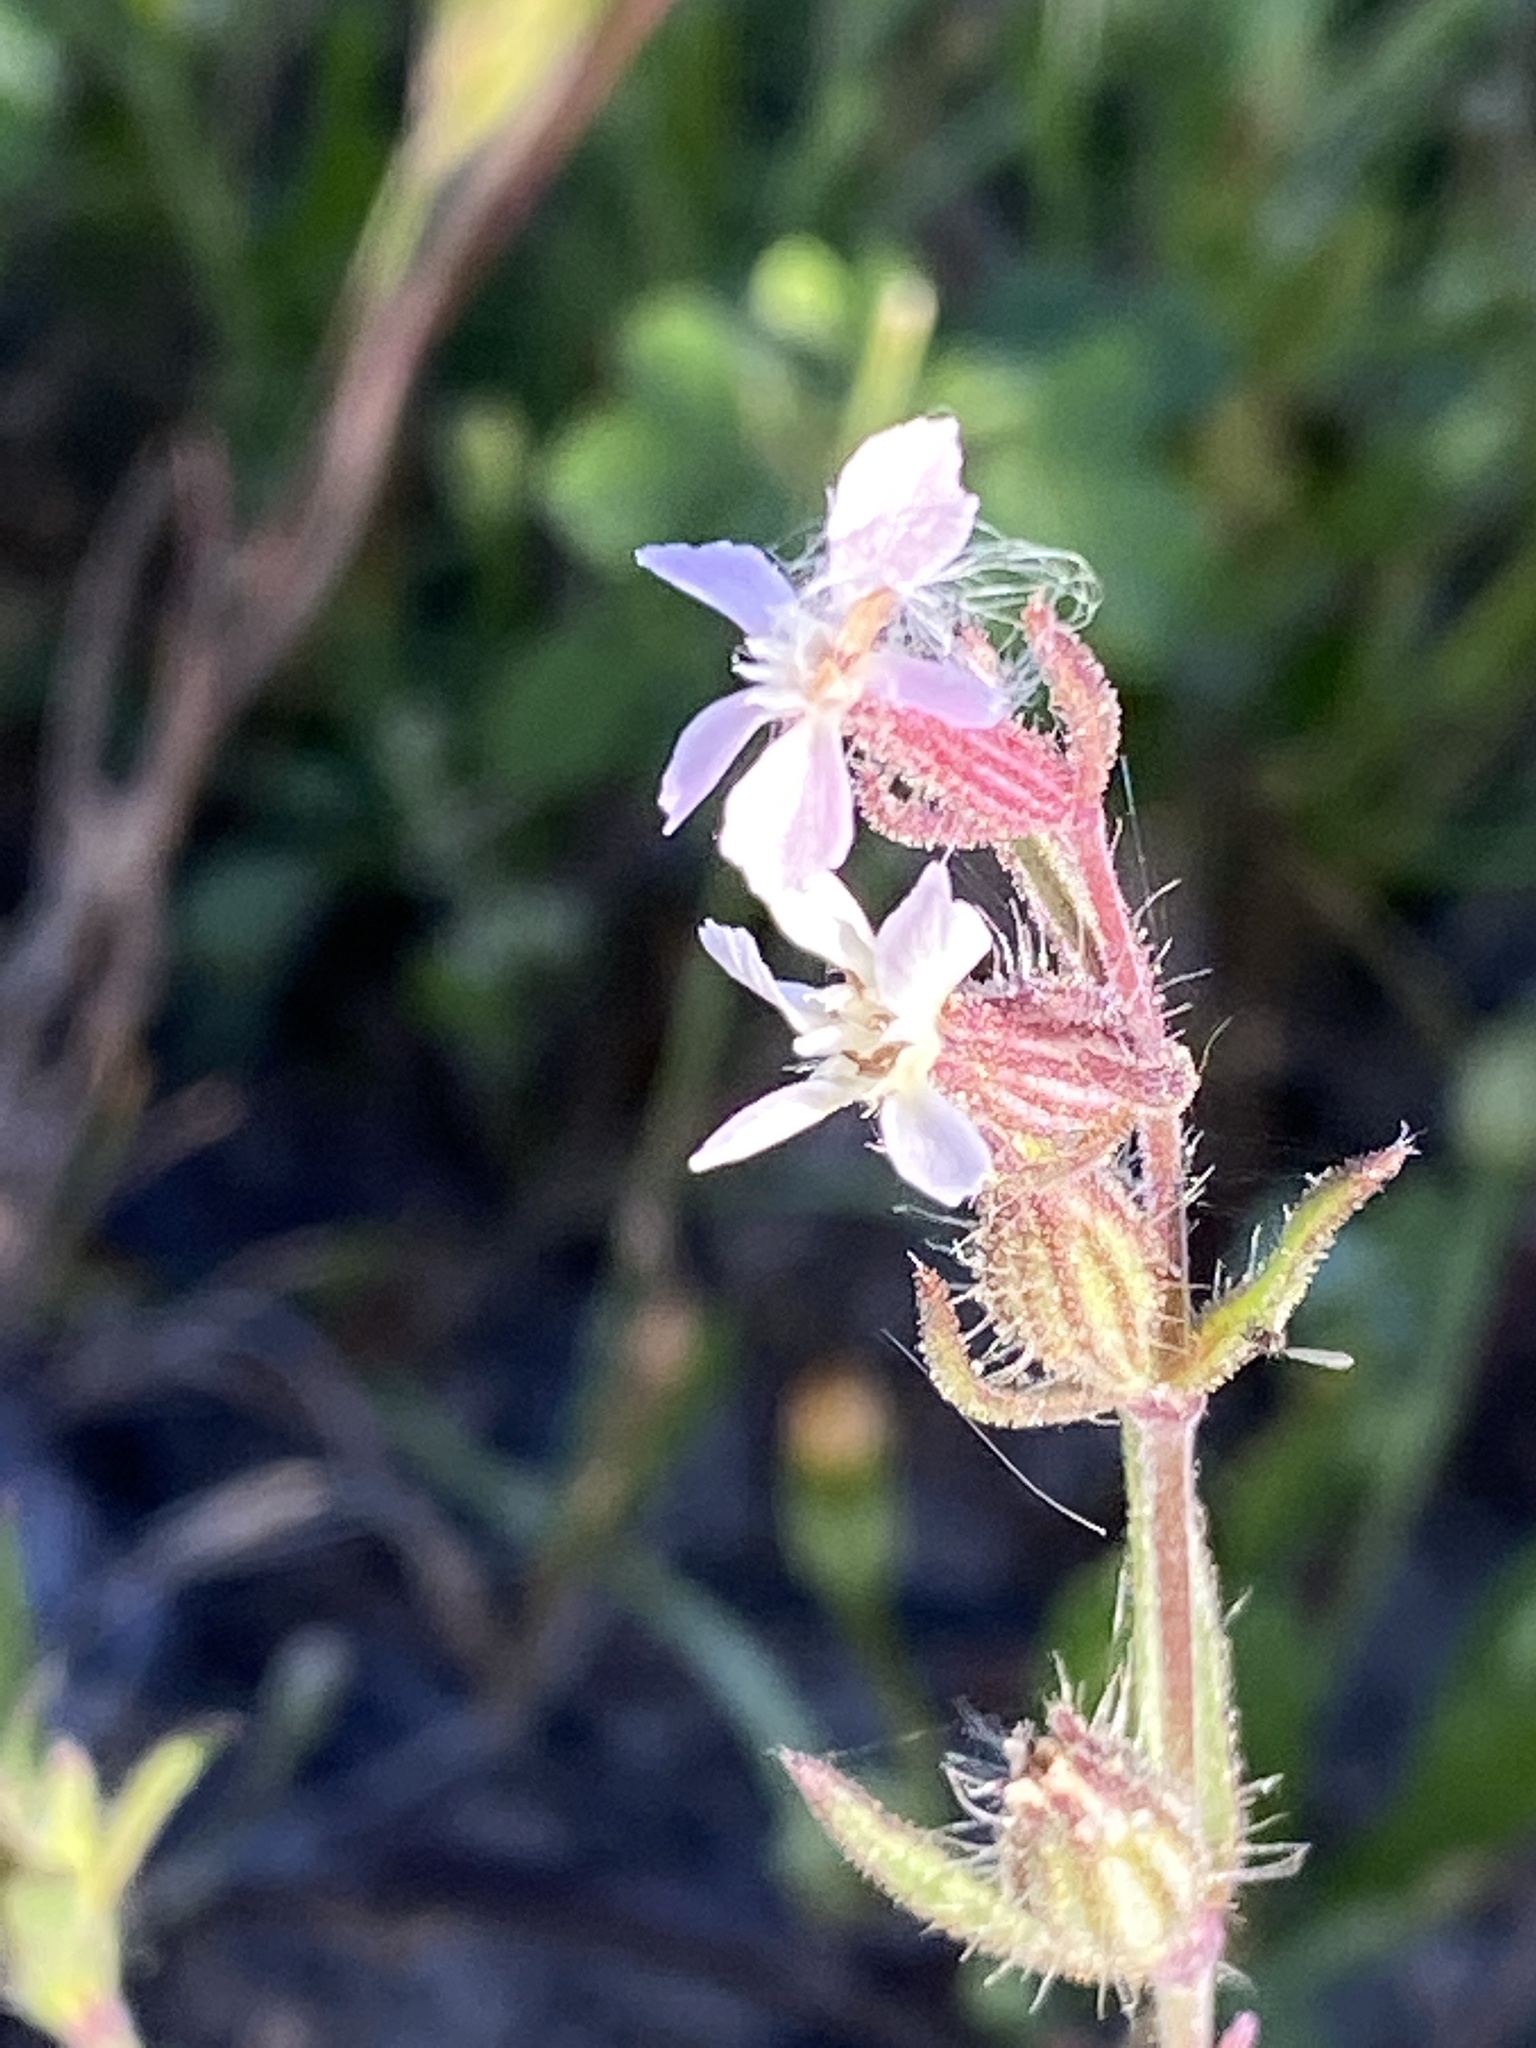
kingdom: Plantae
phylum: Tracheophyta
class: Magnoliopsida
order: Caryophyllales
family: Caryophyllaceae
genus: Silene
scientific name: Silene gallica
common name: Small-flowered catchfly
